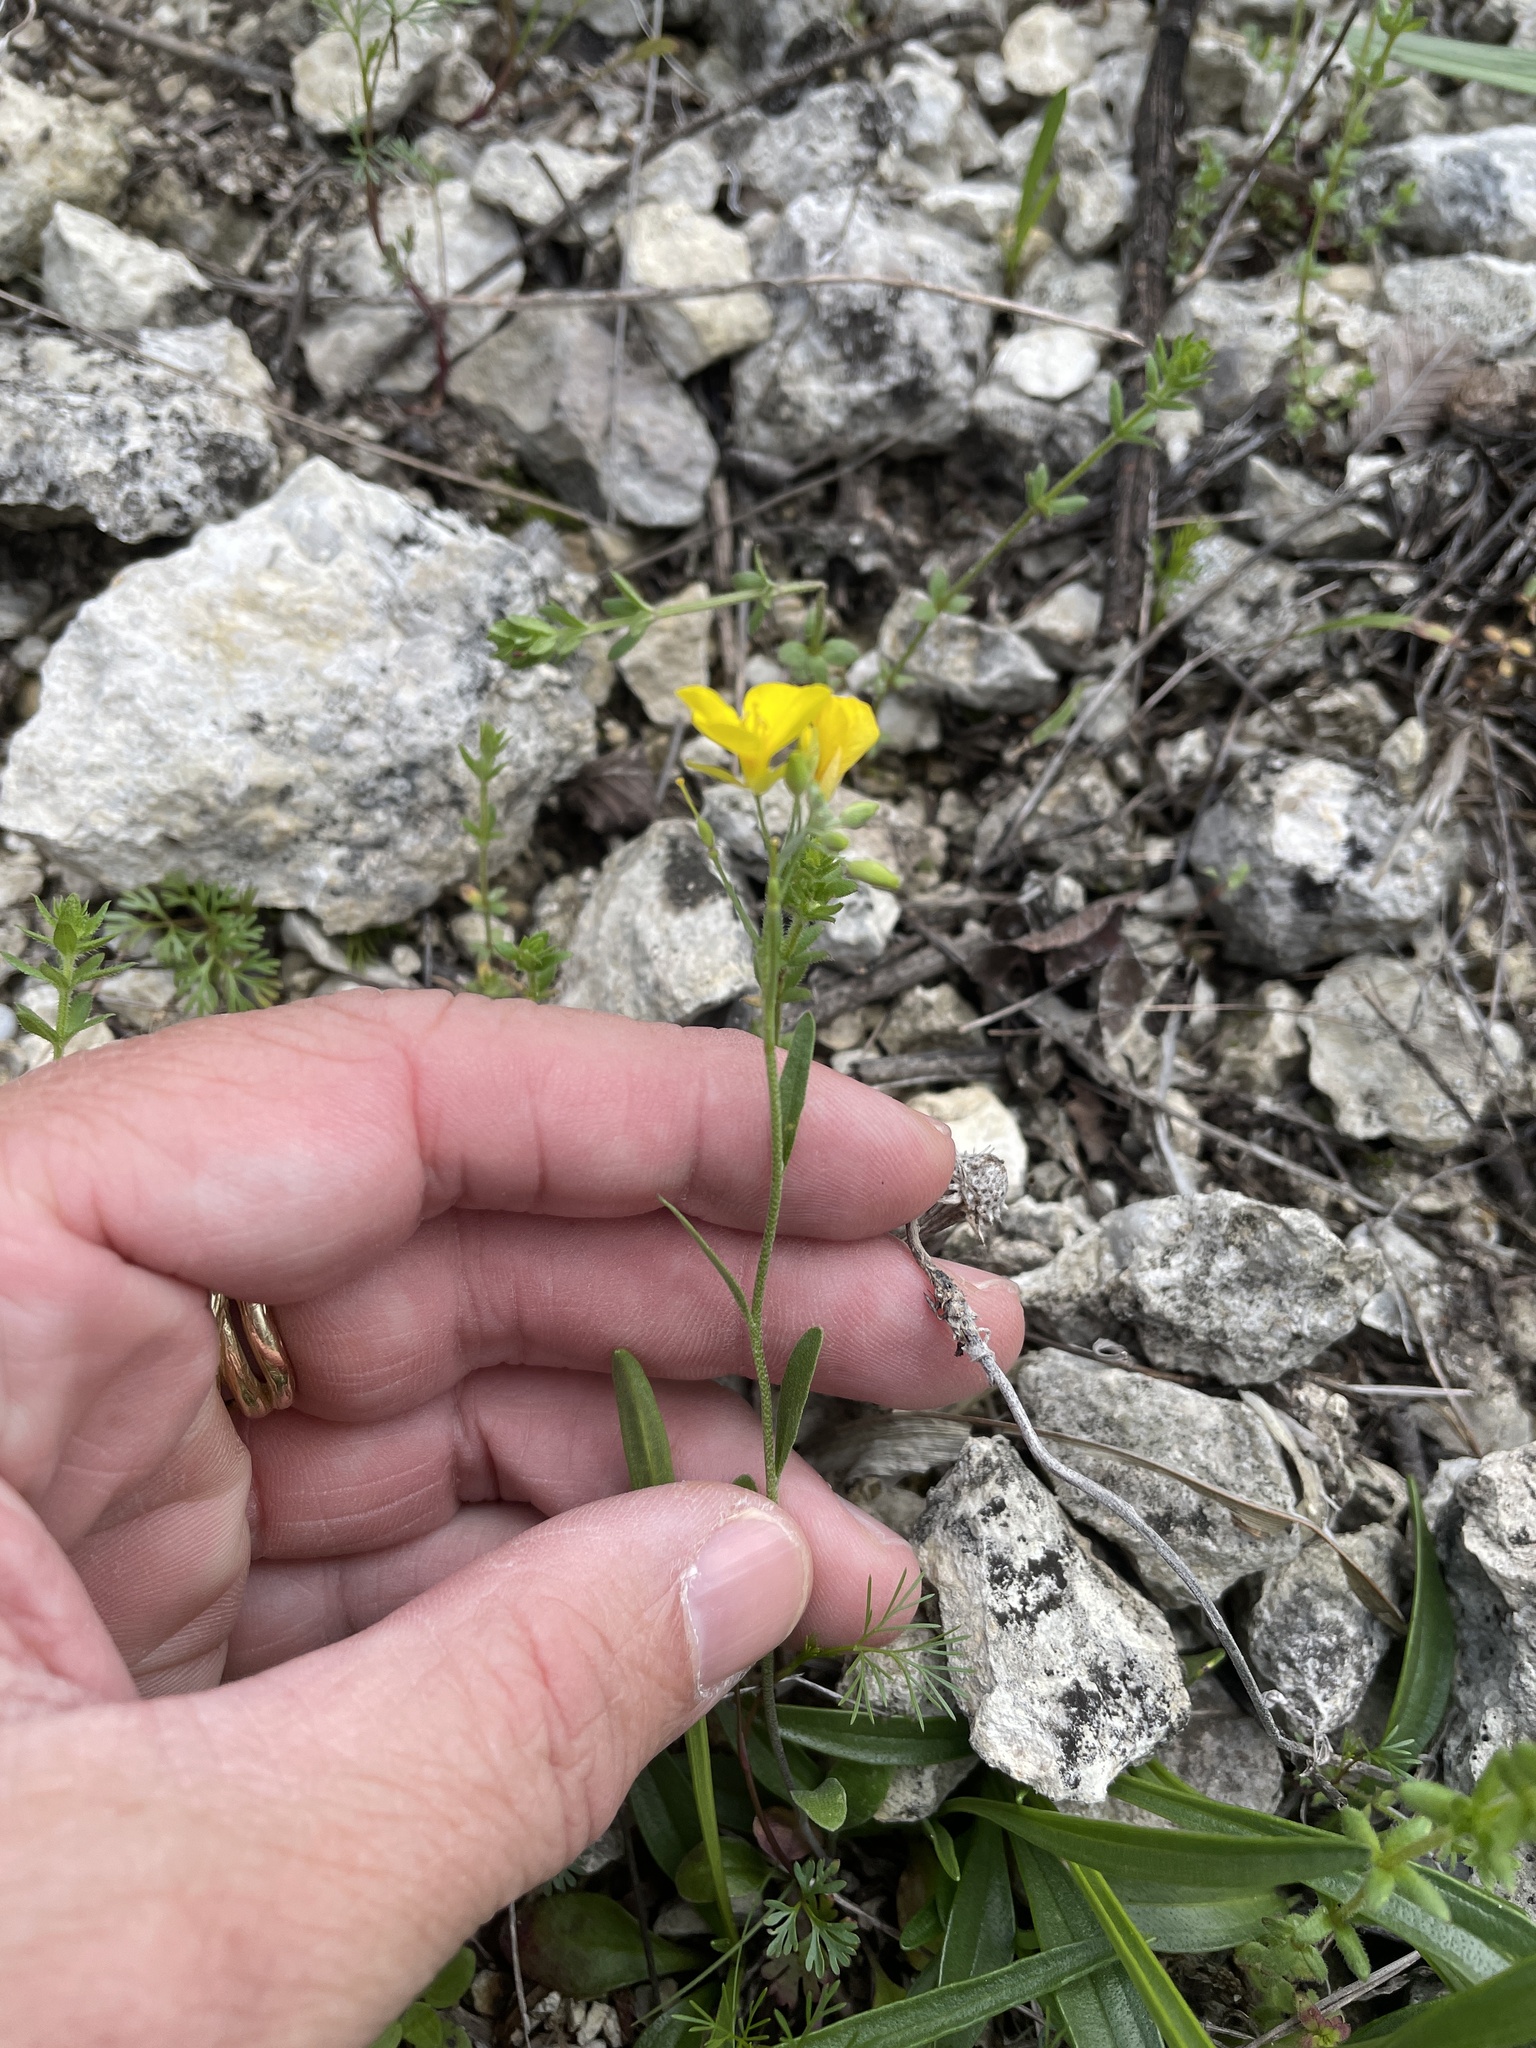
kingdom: Plantae
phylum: Tracheophyta
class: Magnoliopsida
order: Brassicales
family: Brassicaceae
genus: Physaria
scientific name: Physaria gracilis
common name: Spreading bladderpod
